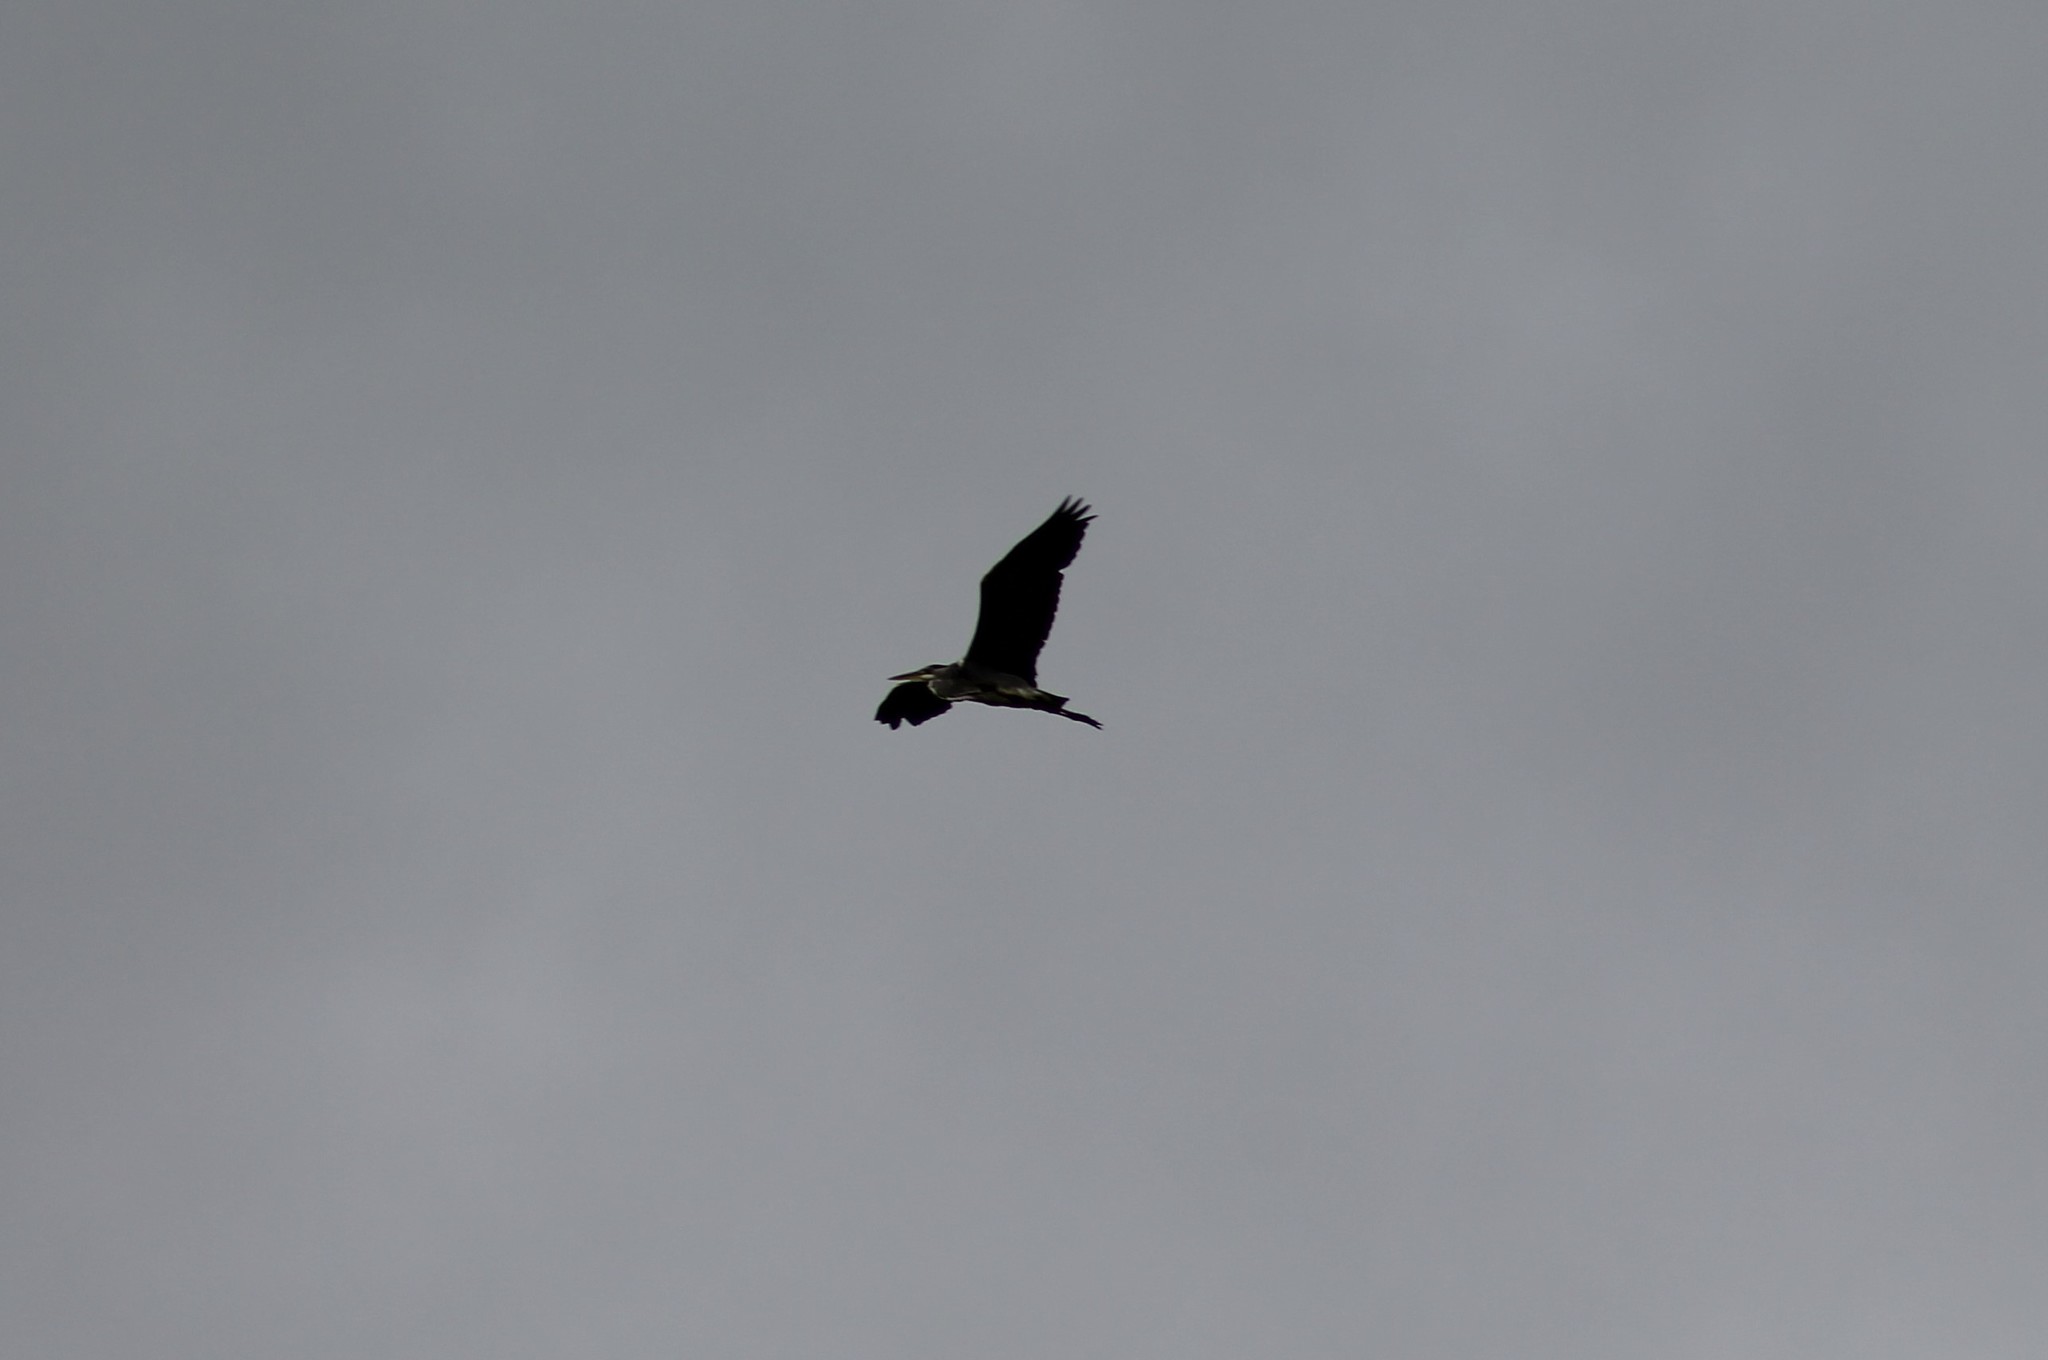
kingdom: Animalia
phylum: Chordata
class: Aves
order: Pelecaniformes
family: Ardeidae
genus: Ardea
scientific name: Ardea cinerea
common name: Grey heron
